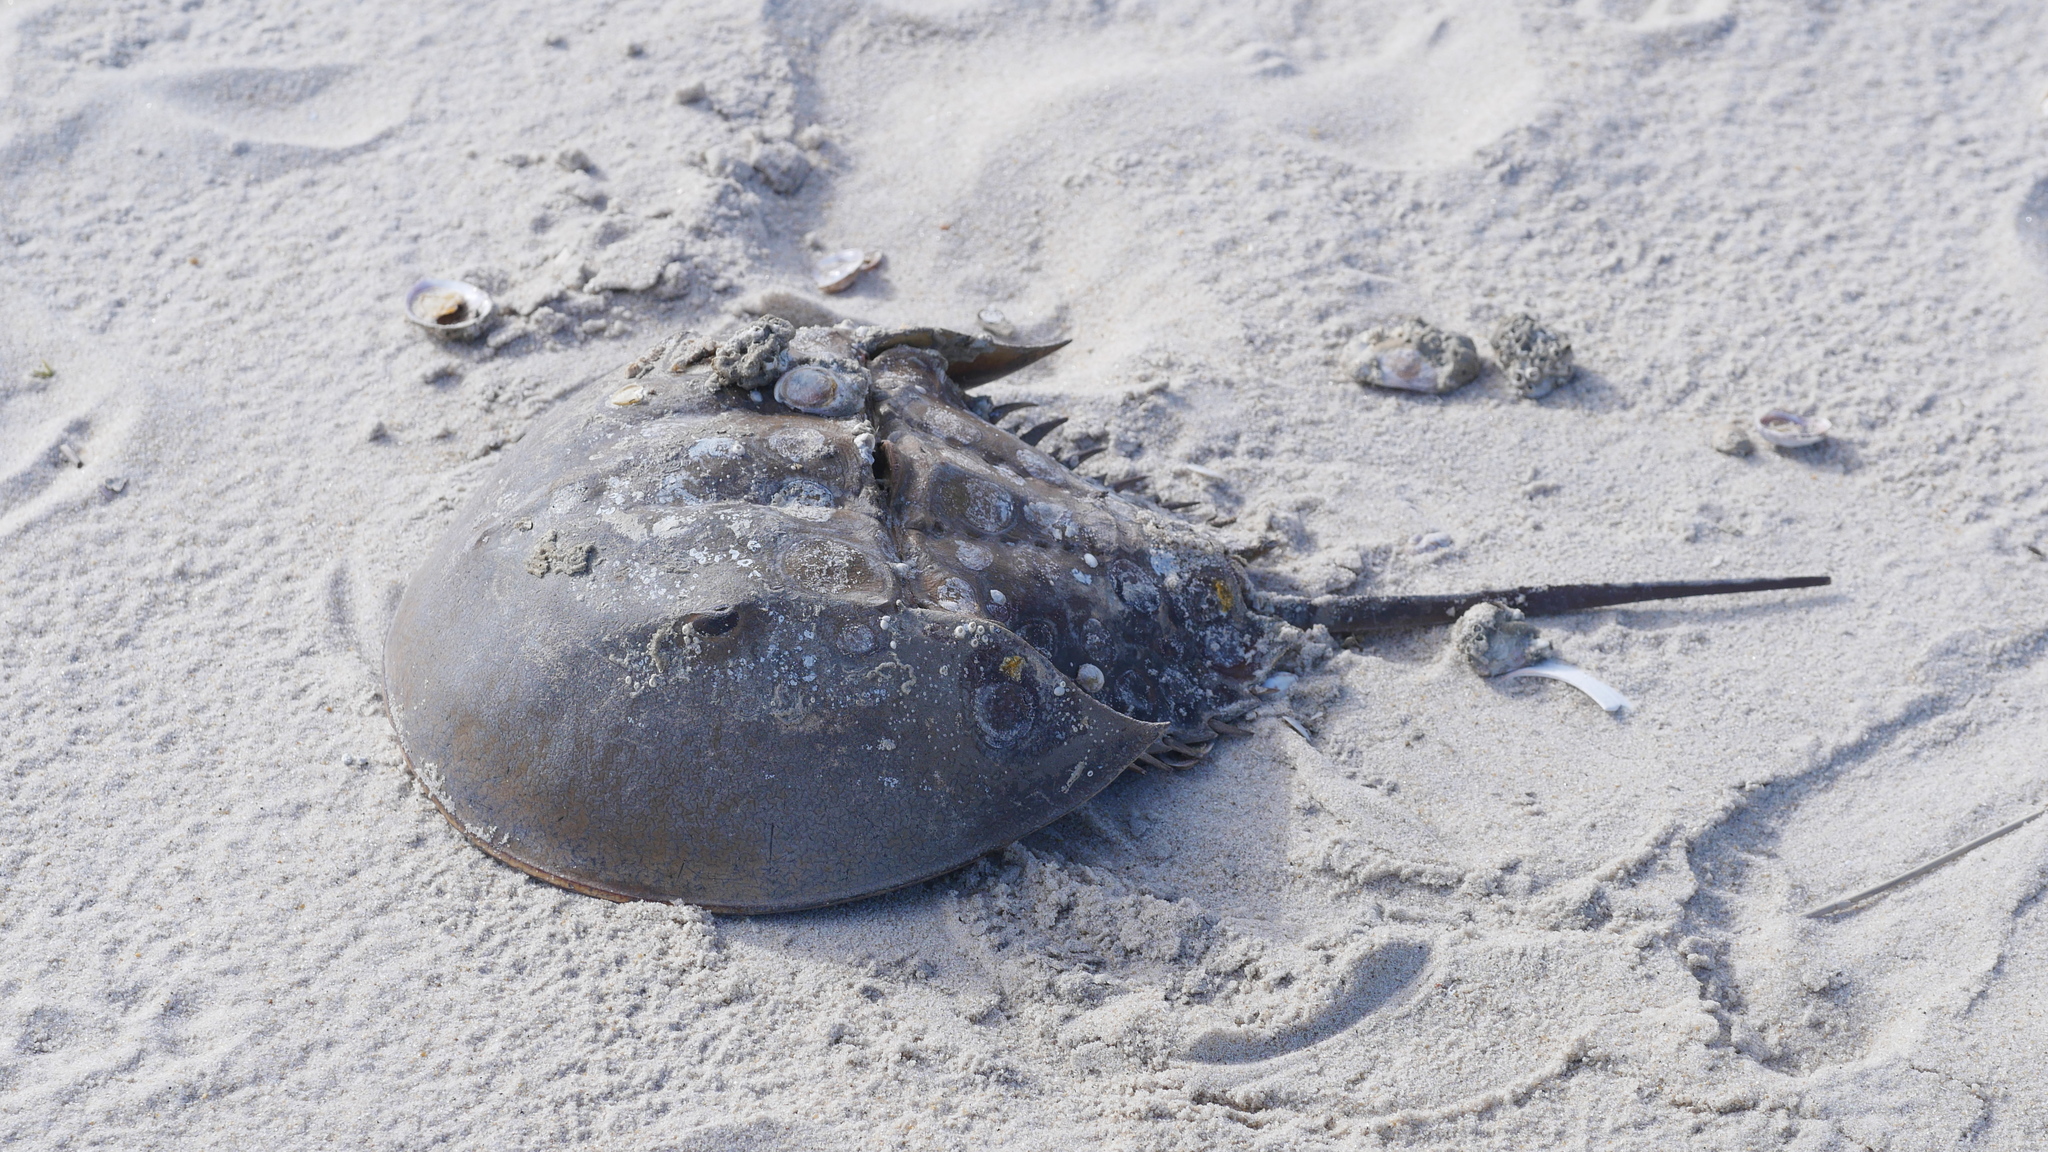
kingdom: Animalia
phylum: Arthropoda
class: Merostomata
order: Xiphosurida
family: Limulidae
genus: Limulus
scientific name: Limulus polyphemus
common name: Horseshoe crab
